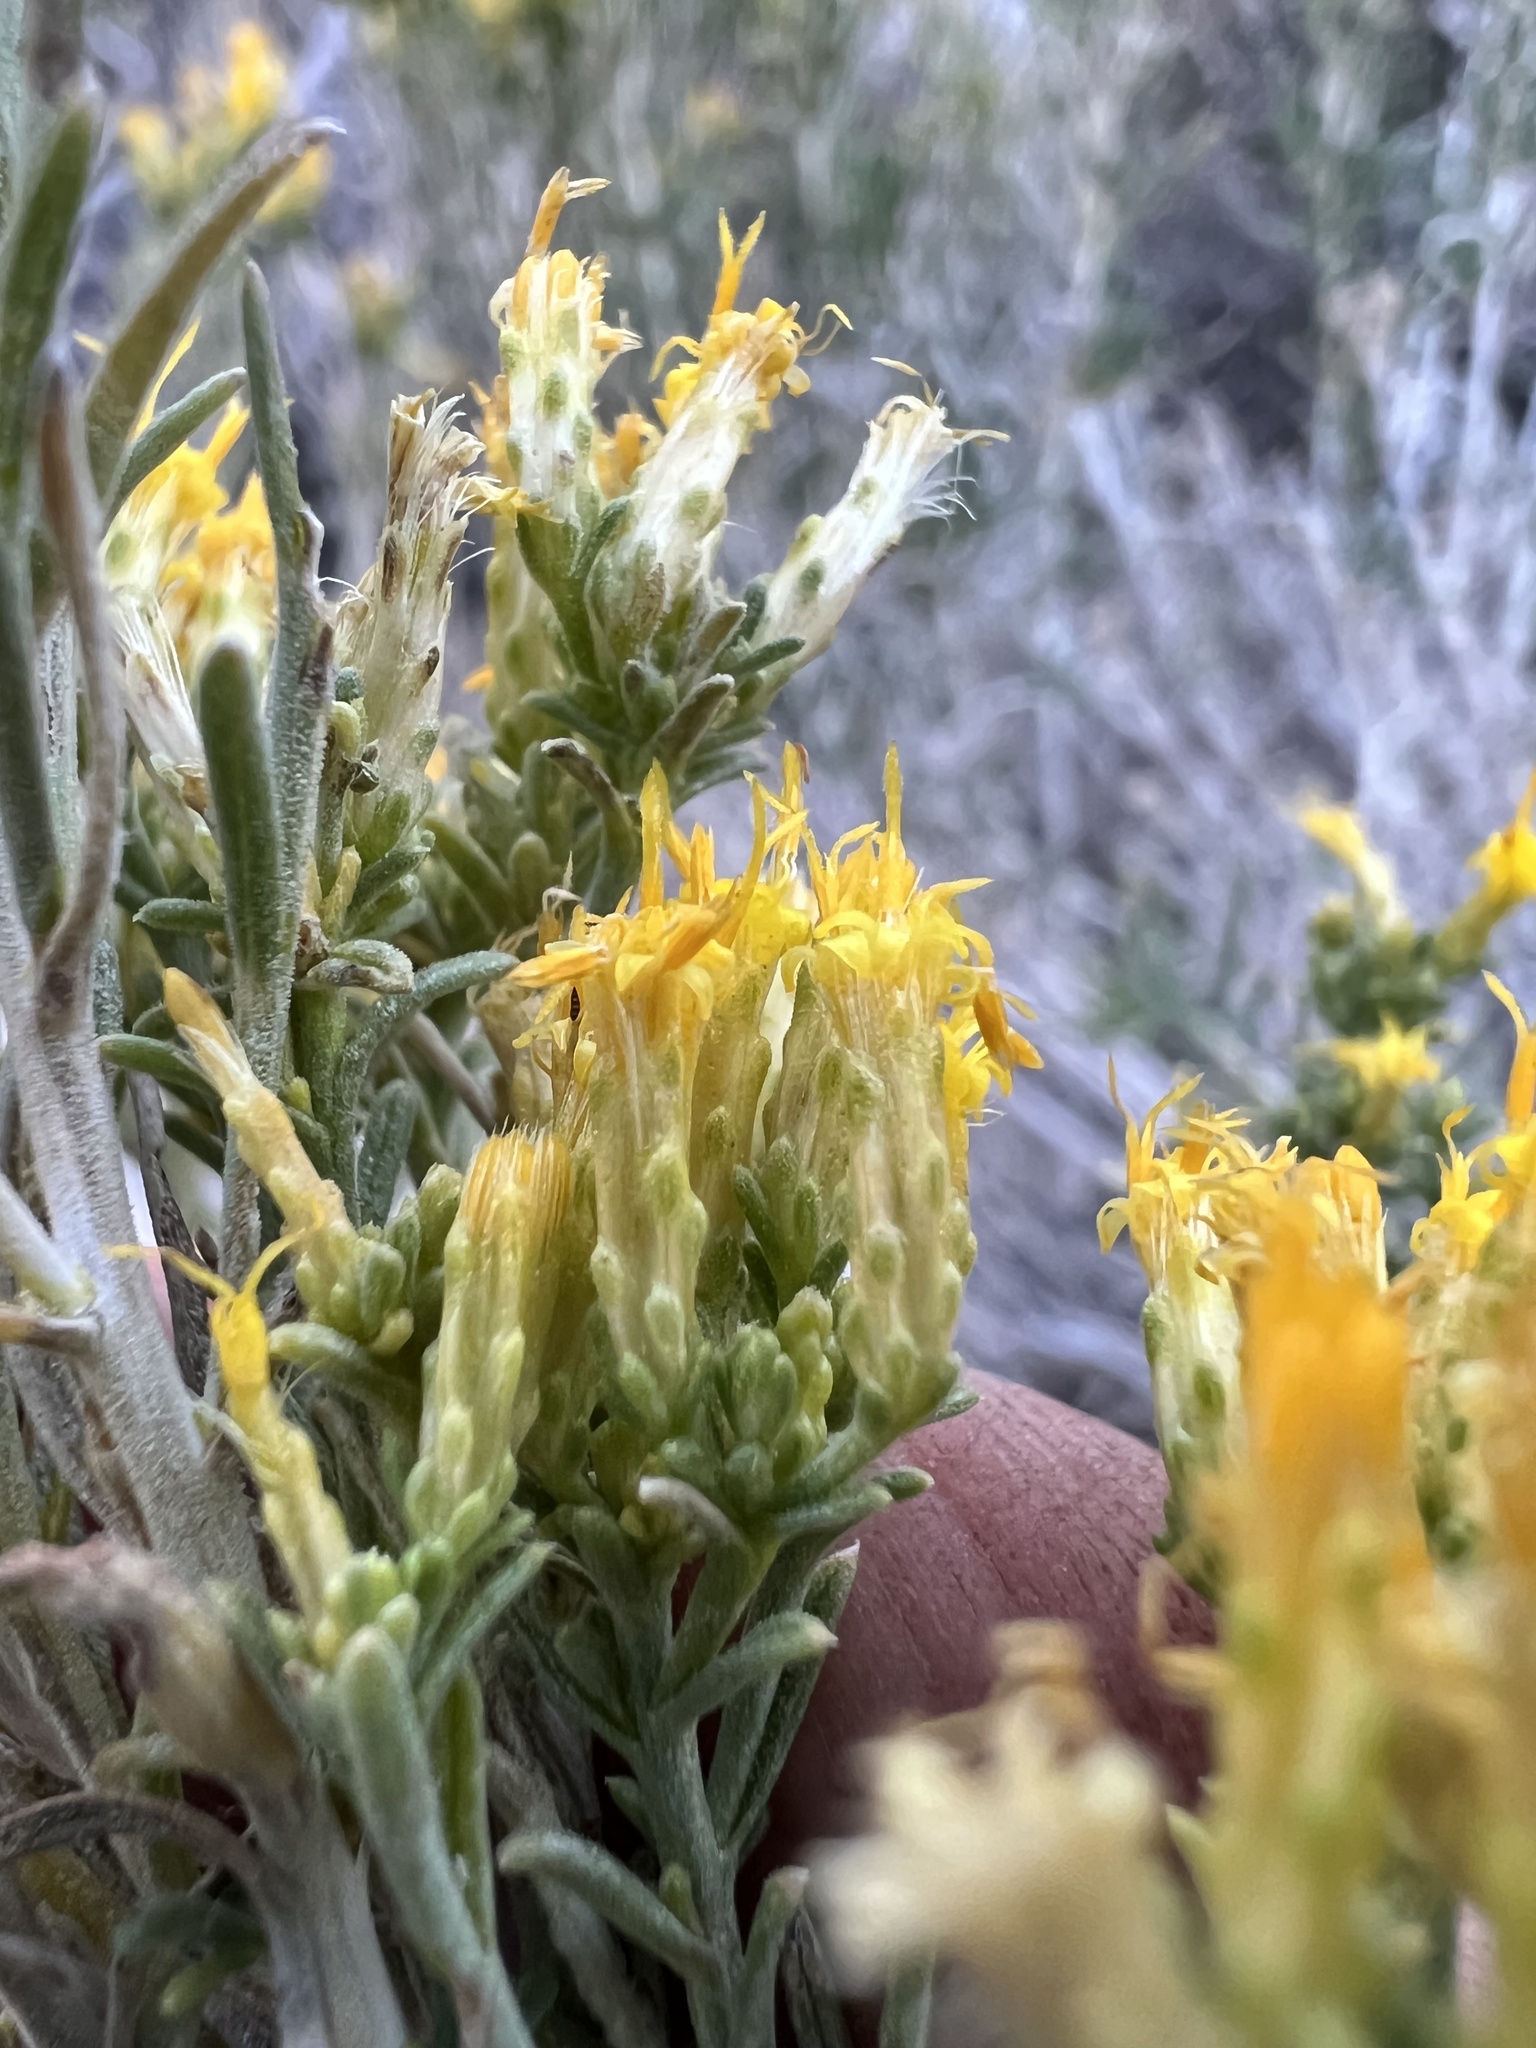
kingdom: Plantae
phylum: Tracheophyta
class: Magnoliopsida
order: Asterales
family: Asteraceae
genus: Chrysothamnus
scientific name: Chrysothamnus viscidiflorus
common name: Yellow rabbitbrush
